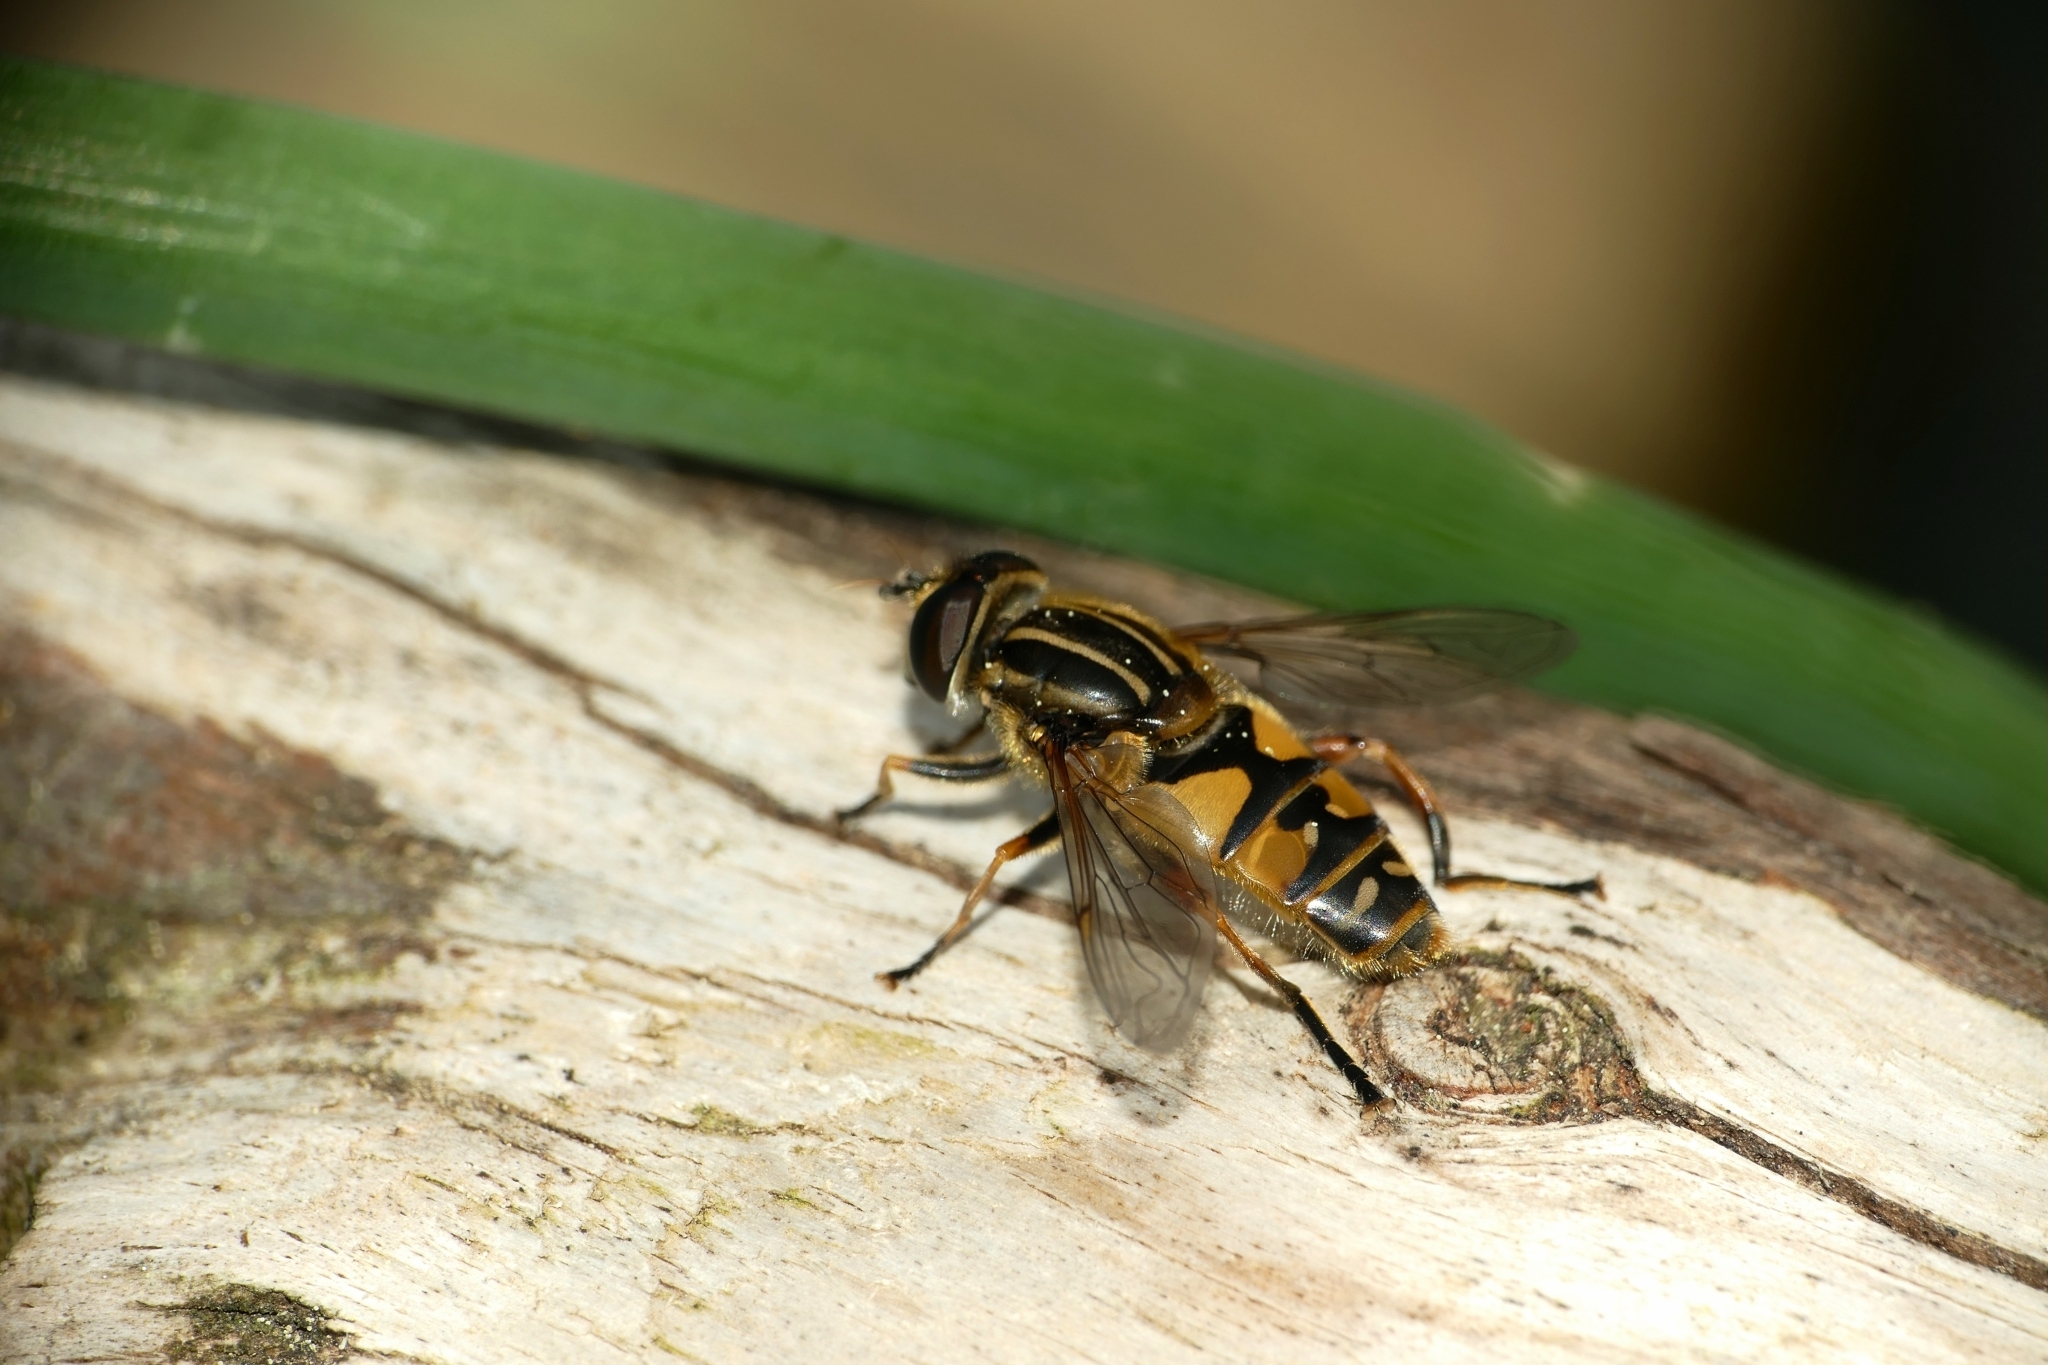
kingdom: Animalia
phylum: Arthropoda
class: Insecta
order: Diptera
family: Syrphidae
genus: Helophilus
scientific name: Helophilus pendulus
